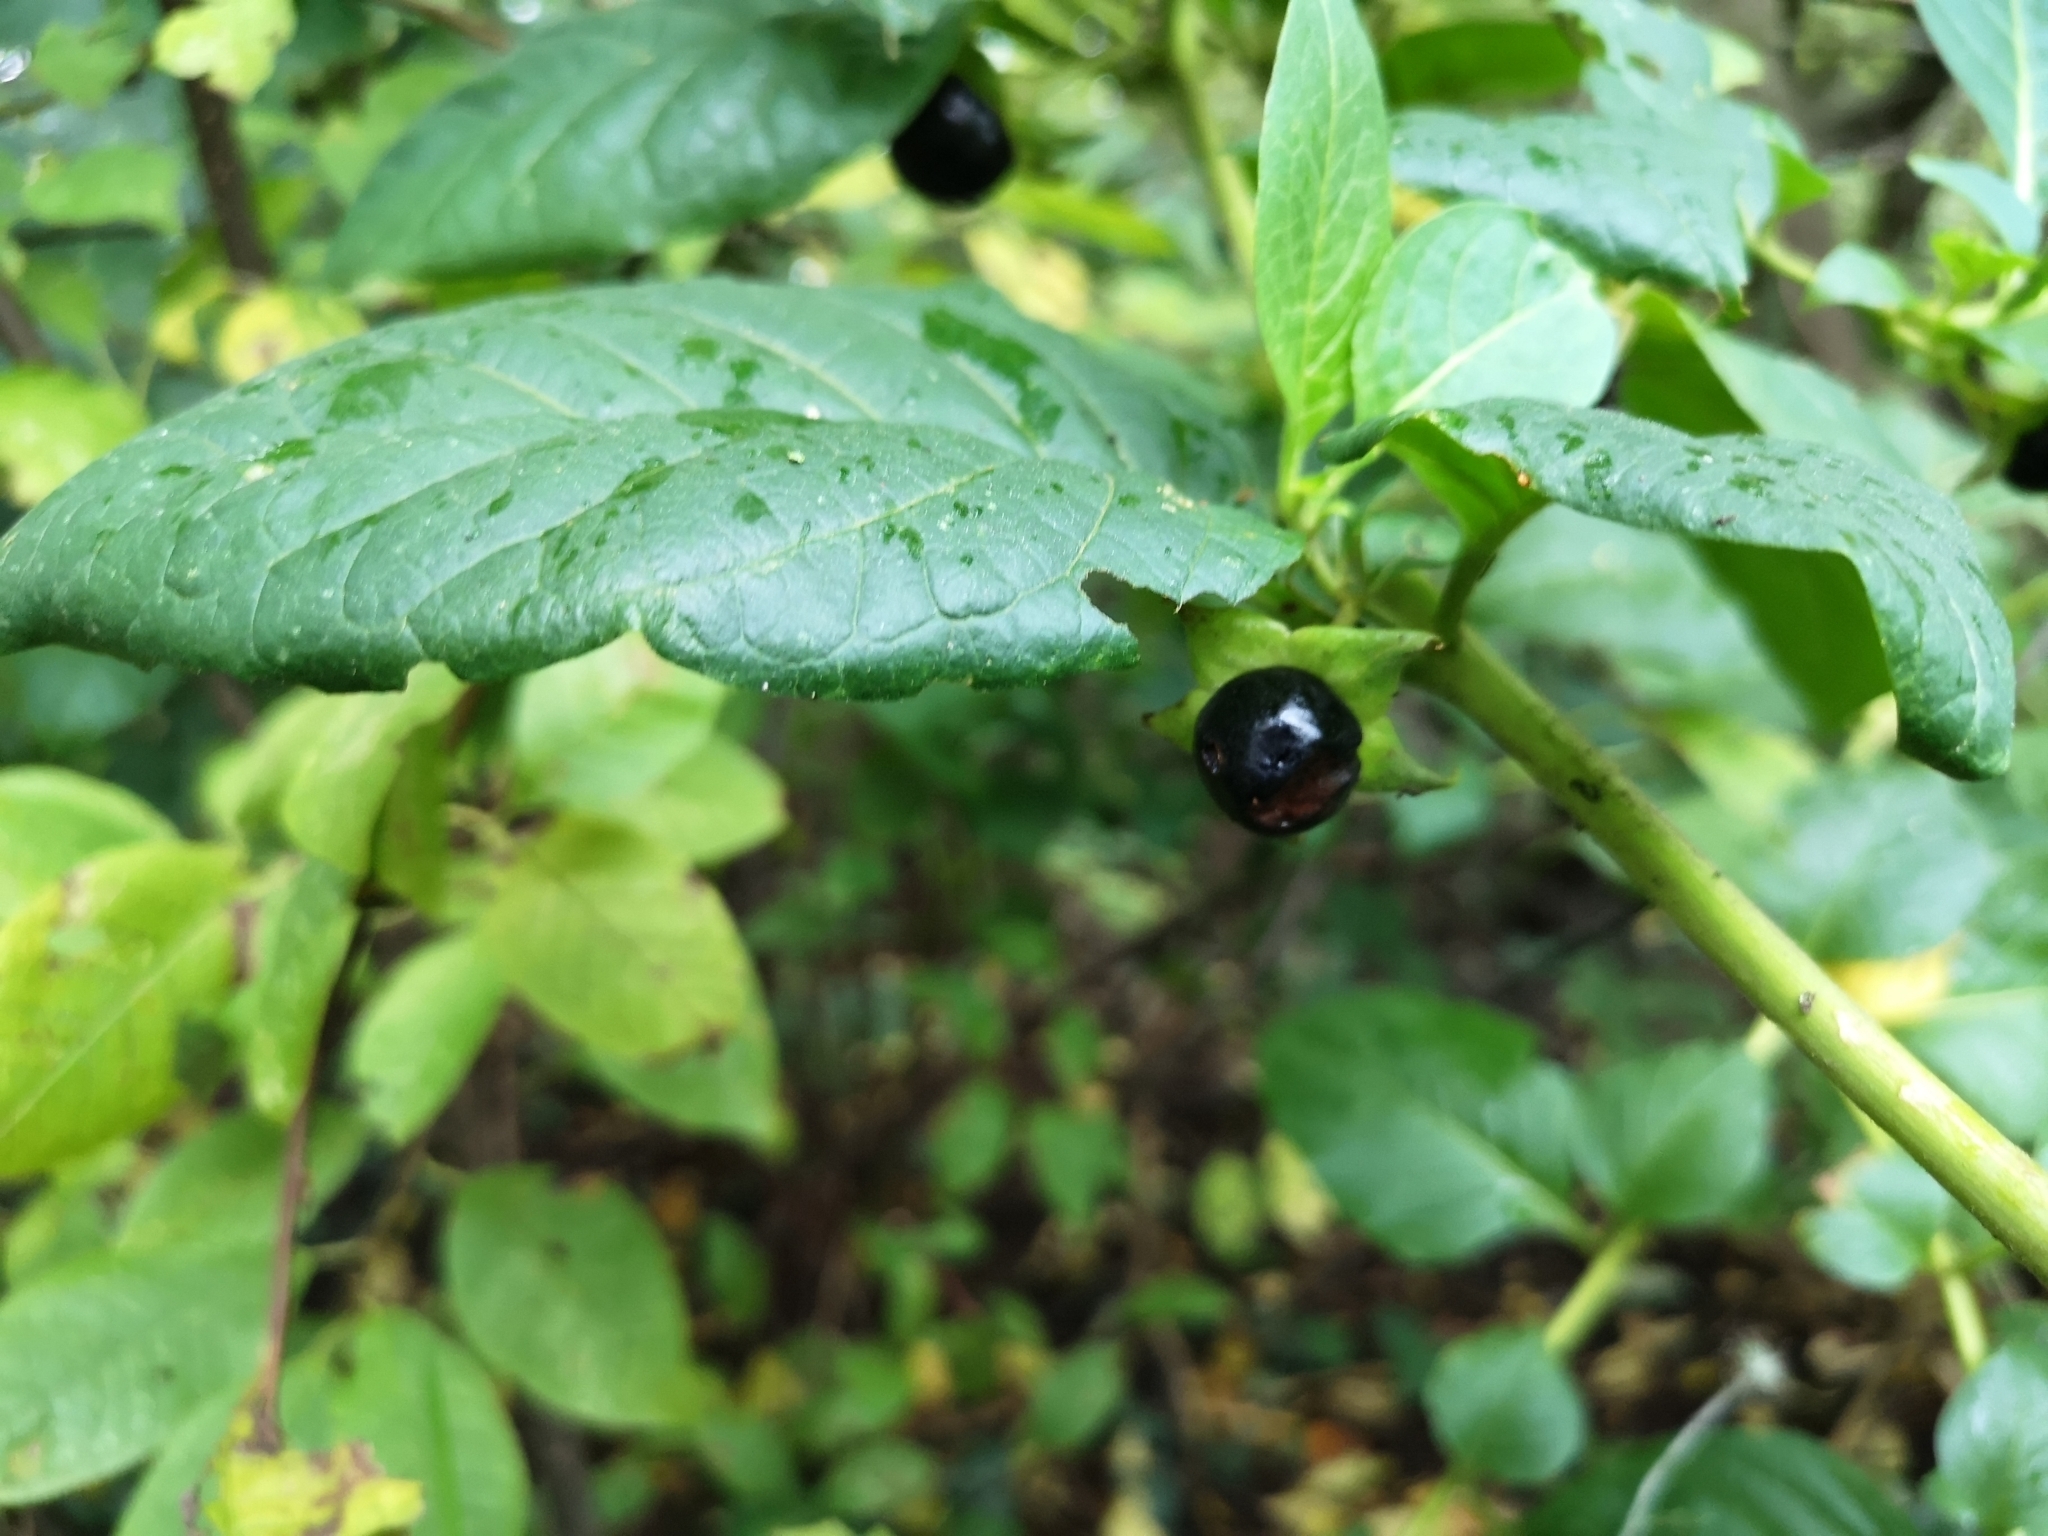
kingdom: Plantae
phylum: Tracheophyta
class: Magnoliopsida
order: Solanales
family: Solanaceae
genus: Atropa
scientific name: Atropa belladonna
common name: Deadly nightshade
